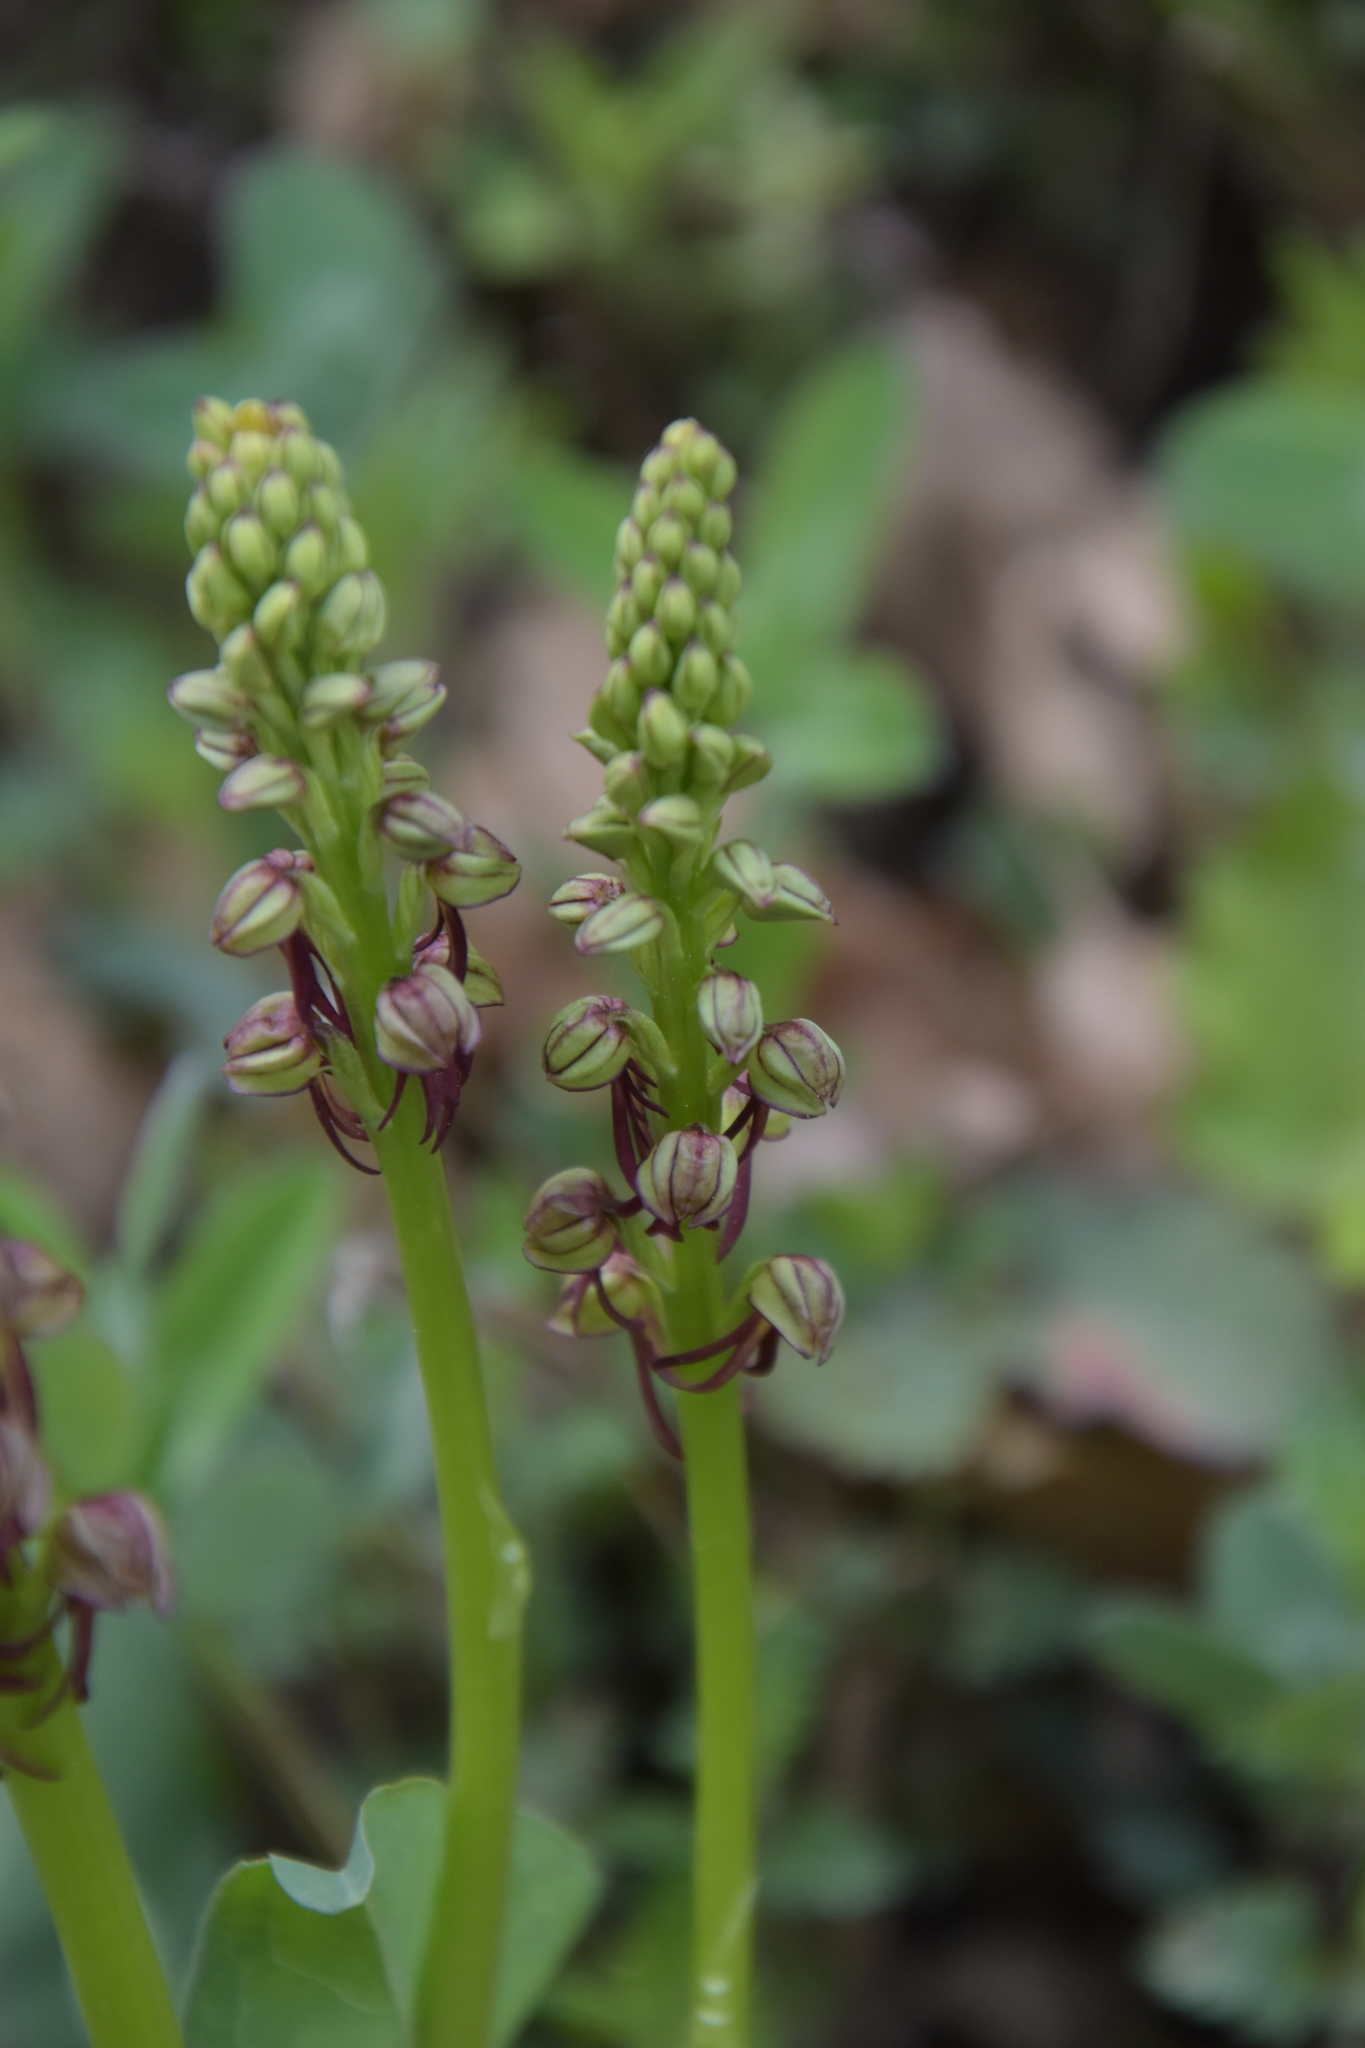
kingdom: Plantae
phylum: Tracheophyta
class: Liliopsida
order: Asparagales
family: Orchidaceae
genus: Orchis
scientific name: Orchis anthropophora
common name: Man orchid
